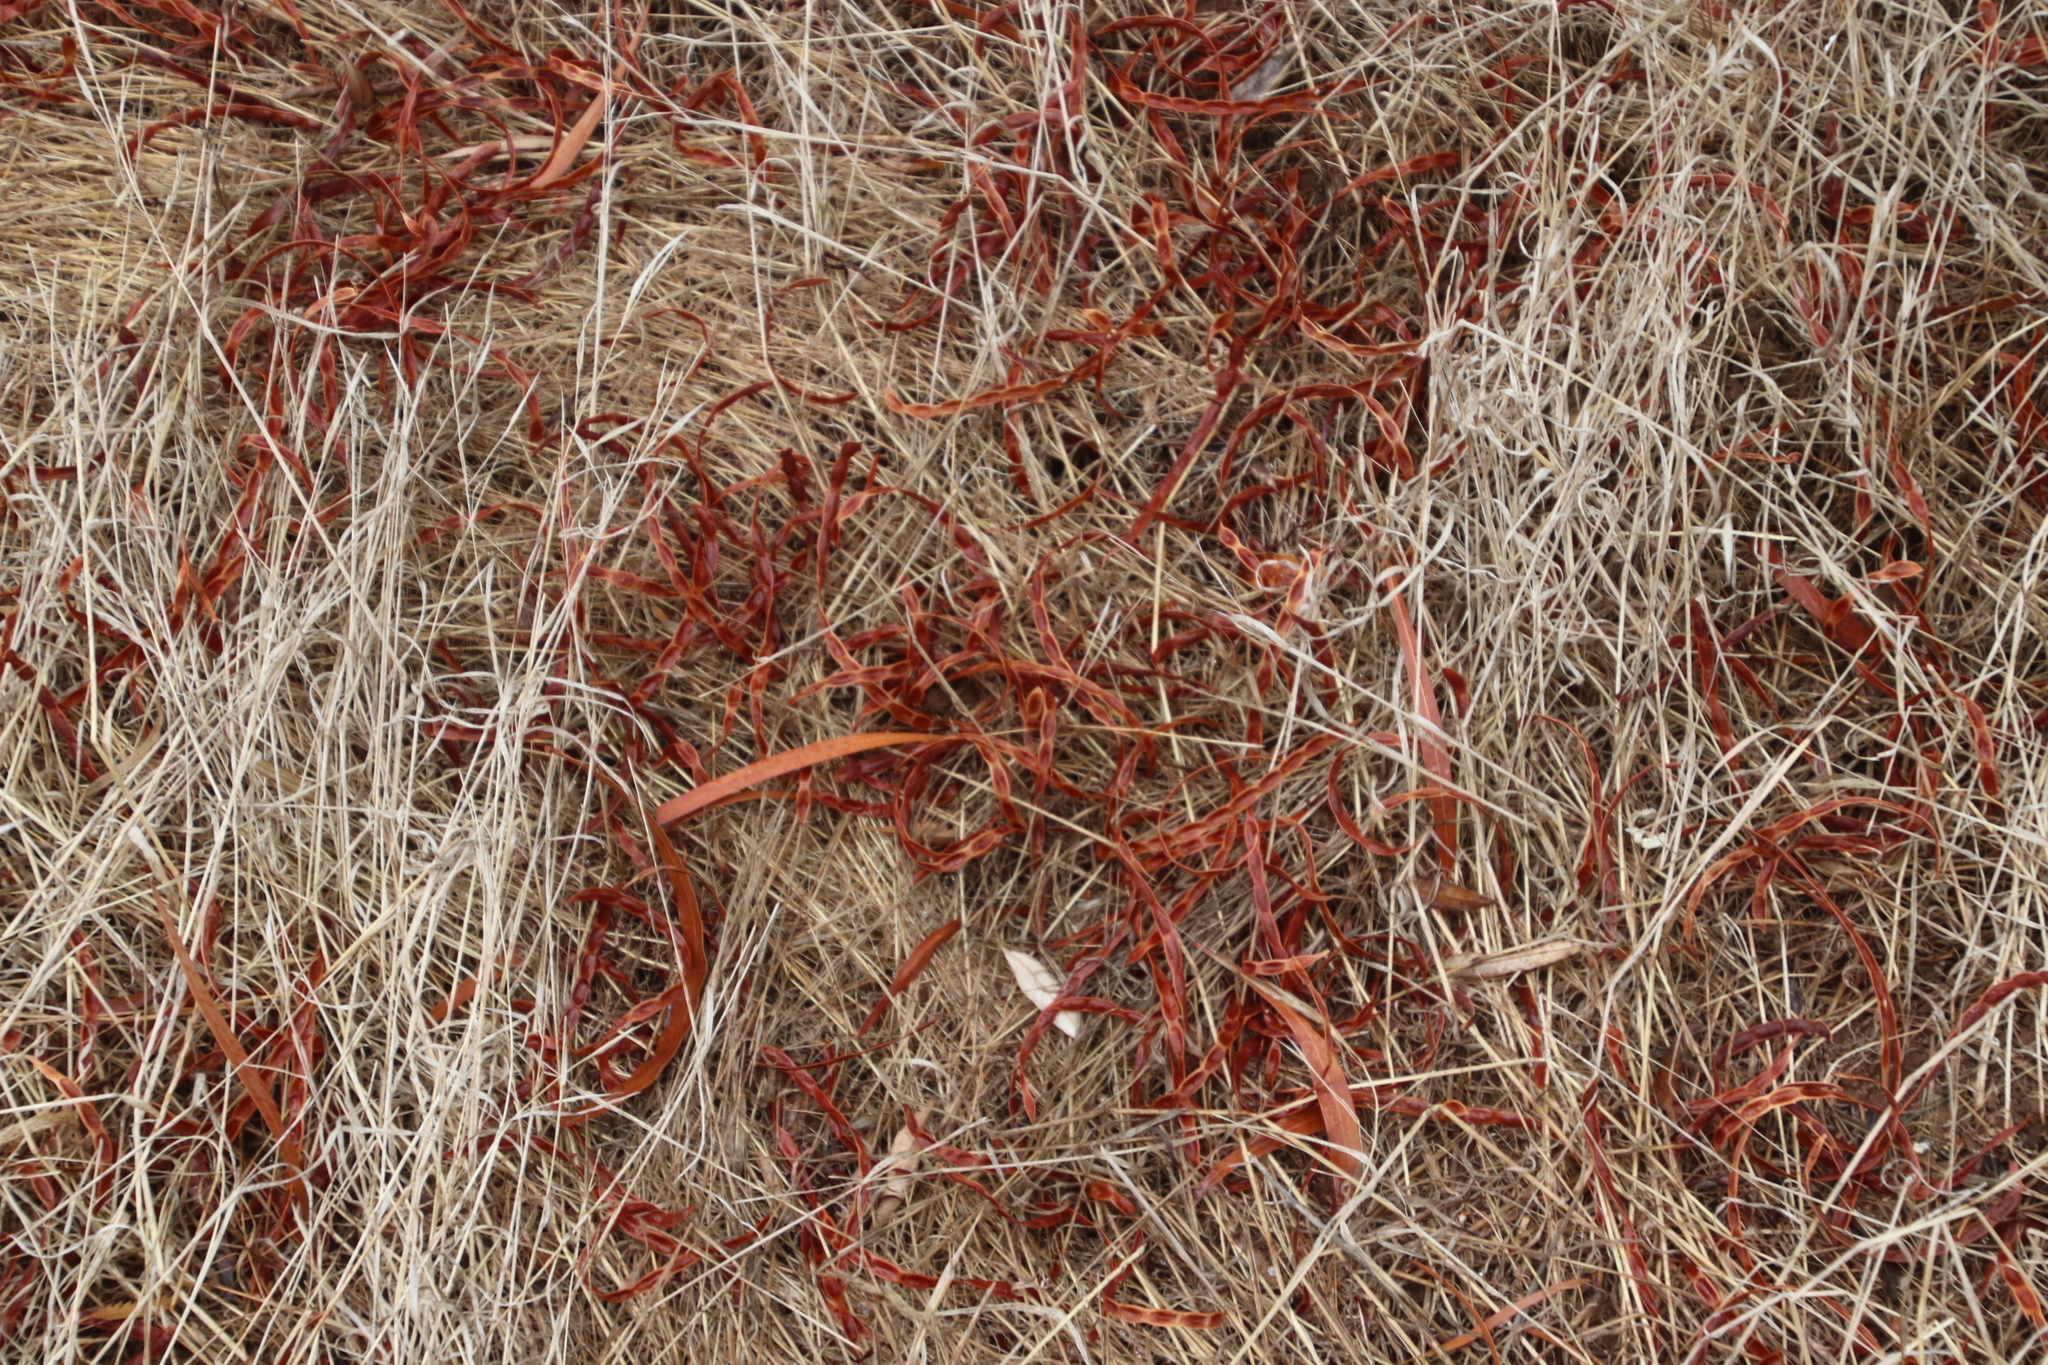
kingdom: Plantae
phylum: Tracheophyta
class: Magnoliopsida
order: Fabales
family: Fabaceae
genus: Acacia
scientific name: Acacia saligna
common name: Orange wattle
